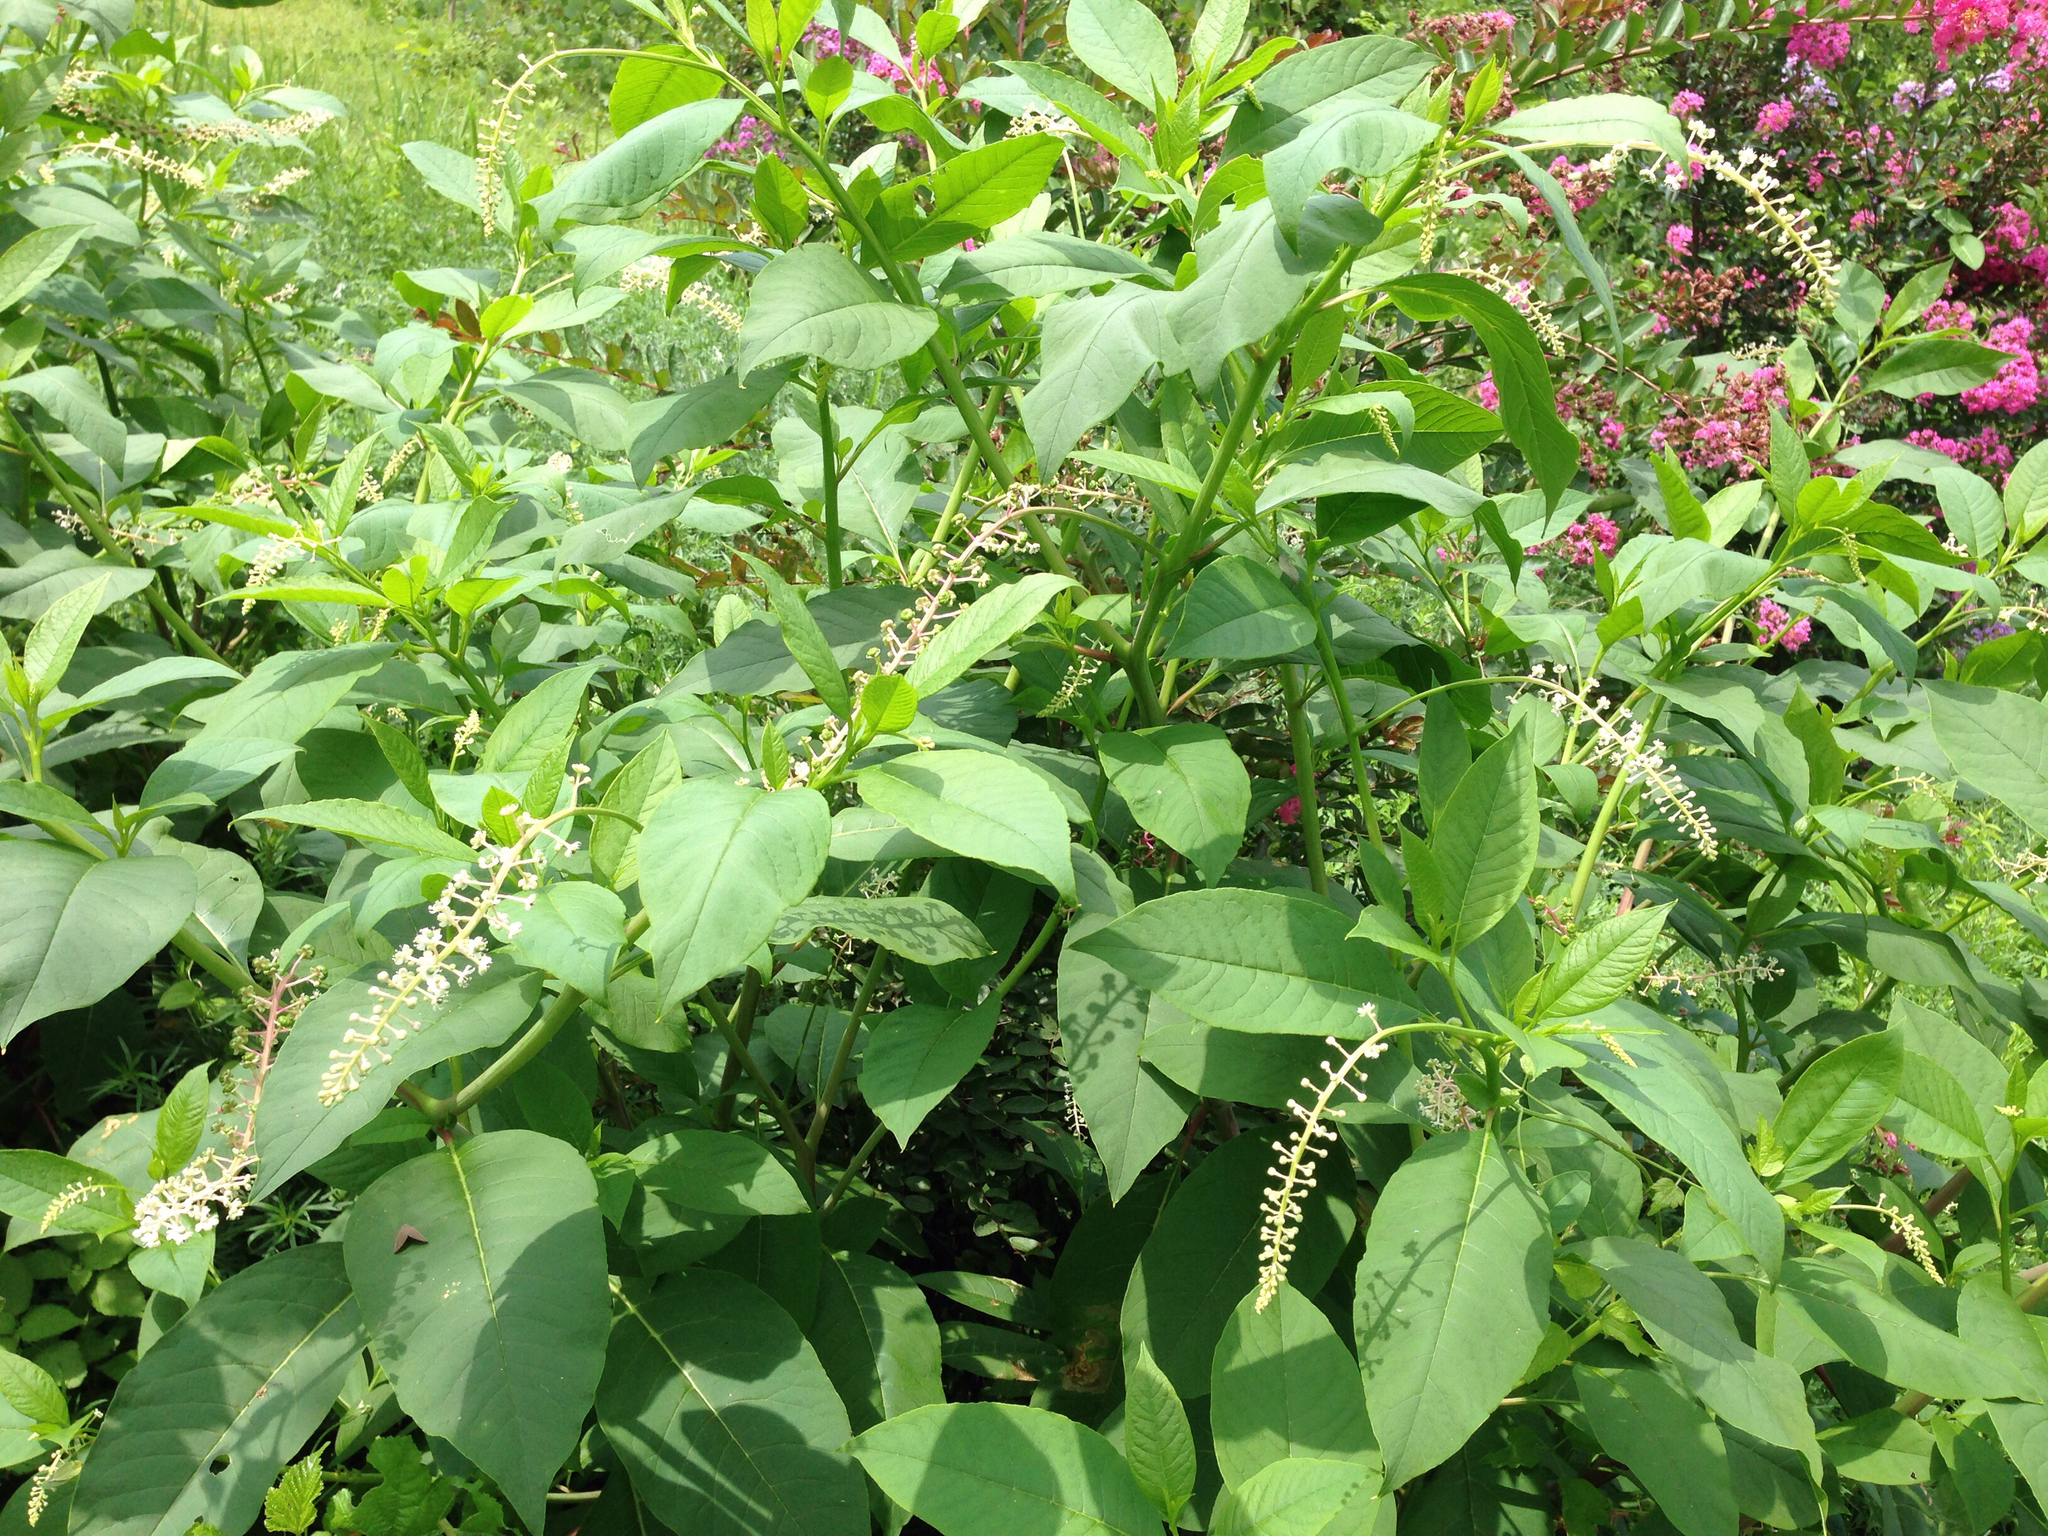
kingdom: Plantae
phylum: Tracheophyta
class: Magnoliopsida
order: Caryophyllales
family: Phytolaccaceae
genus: Phytolacca
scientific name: Phytolacca americana
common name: American pokeweed
